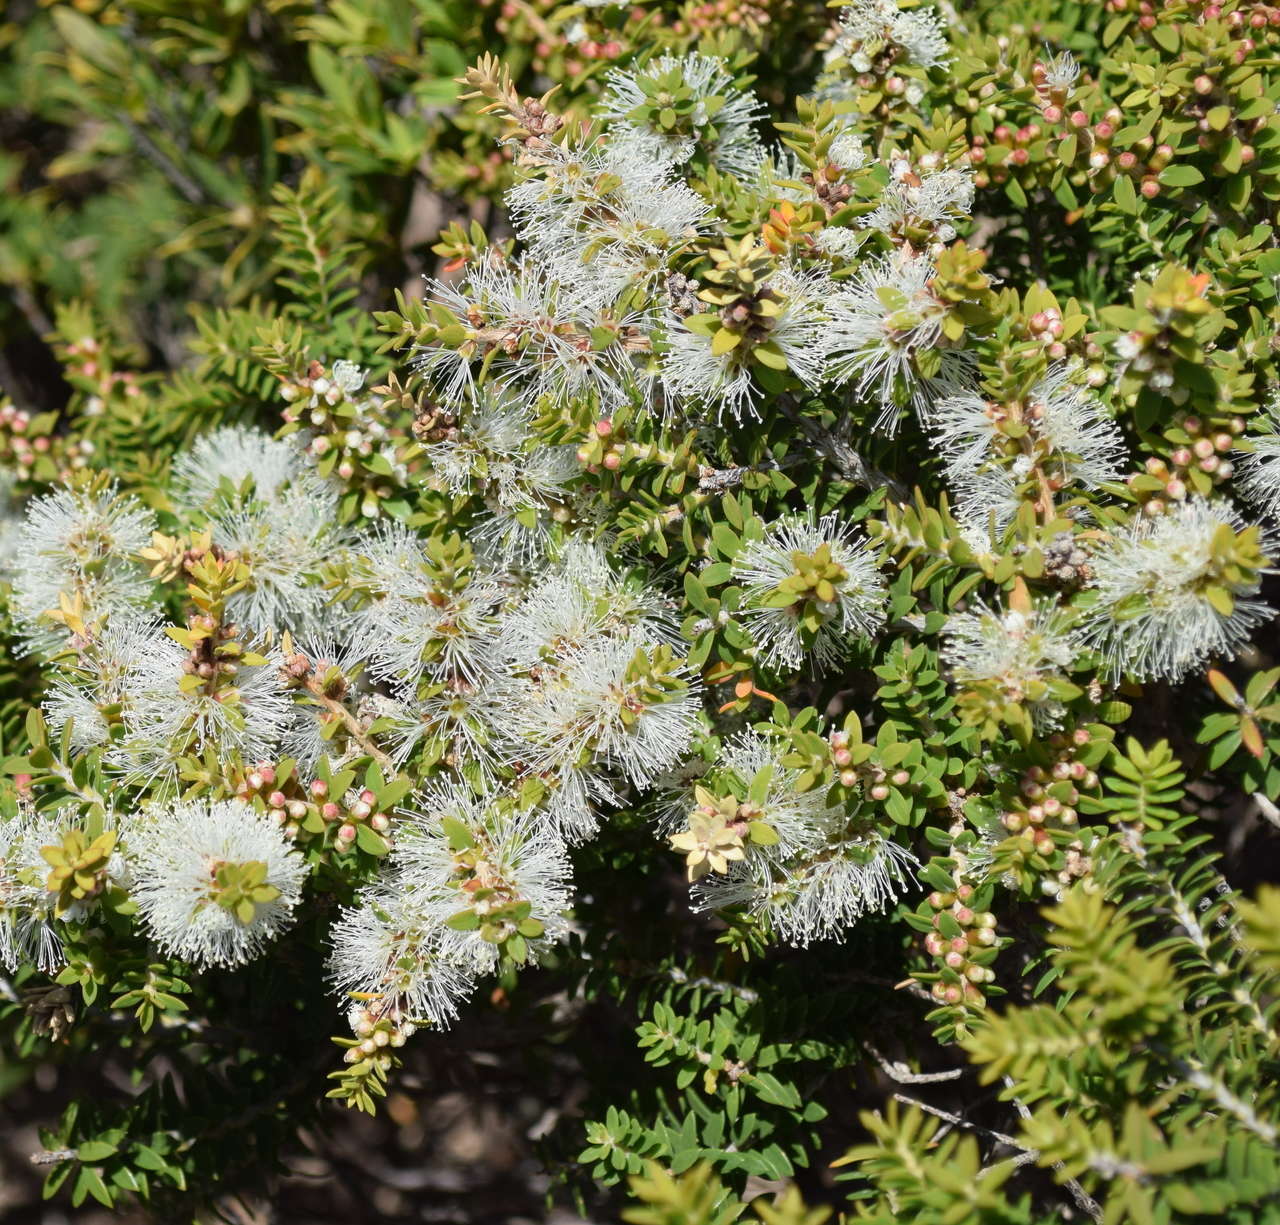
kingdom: Plantae
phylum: Tracheophyta
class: Magnoliopsida
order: Myrtales
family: Myrtaceae
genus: Melaleuca
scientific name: Melaleuca lanceolata
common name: Rottnest island teatree
